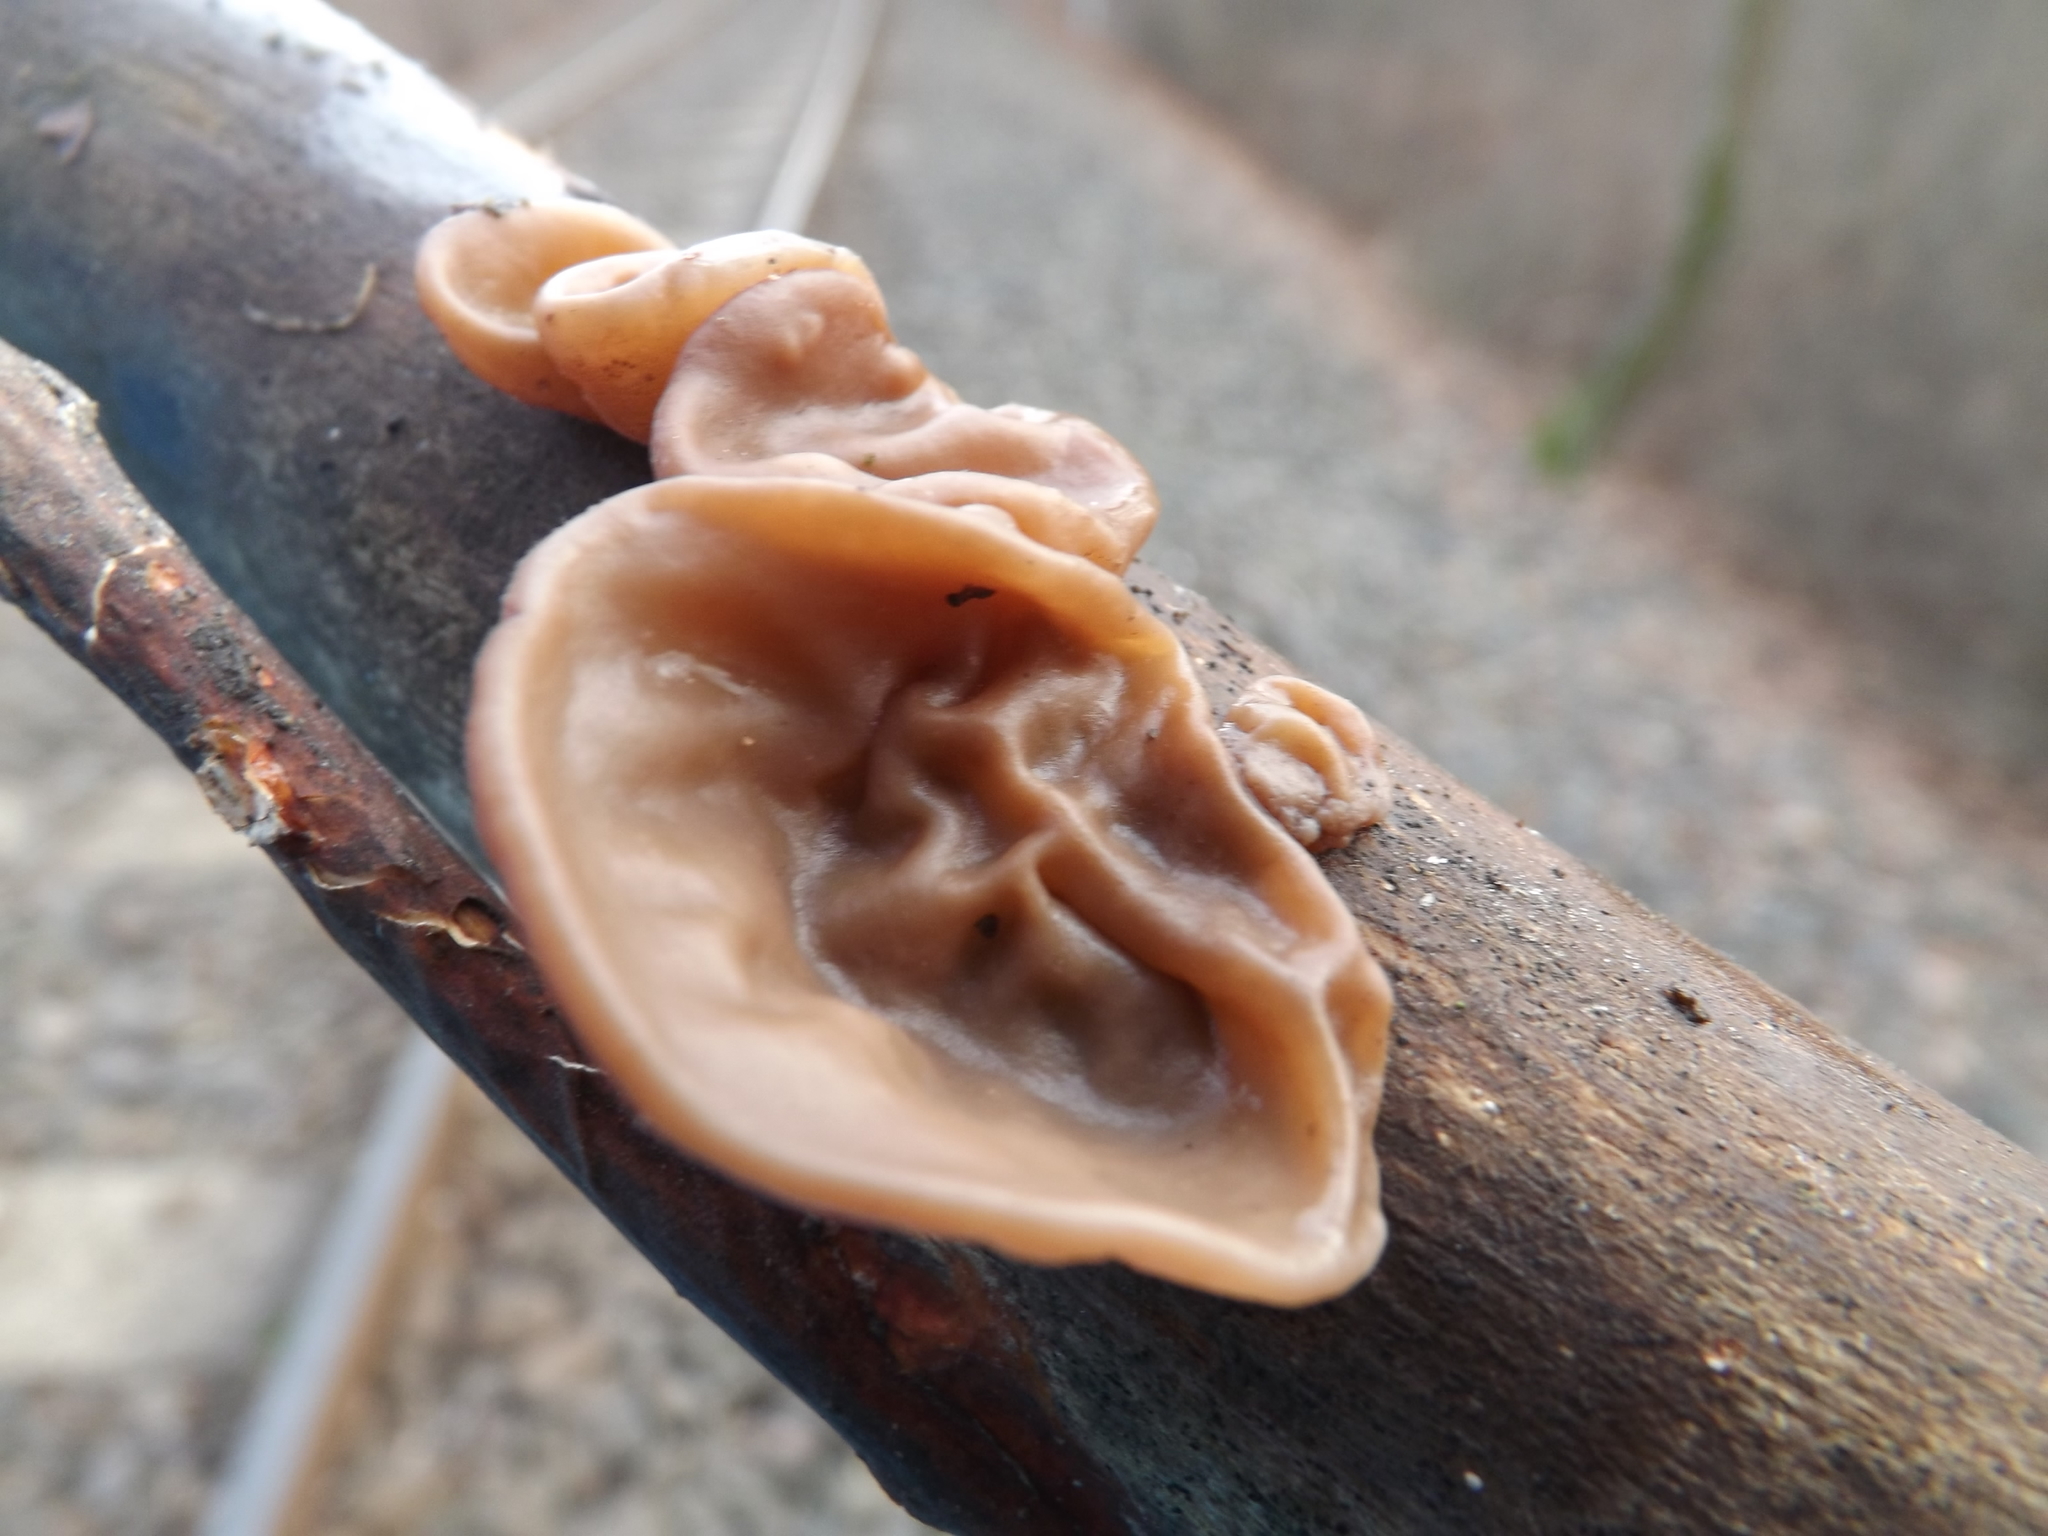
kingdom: Fungi
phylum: Basidiomycota
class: Agaricomycetes
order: Auriculariales
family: Auriculariaceae
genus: Auricularia
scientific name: Auricularia auricula-judae
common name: Jelly ear
